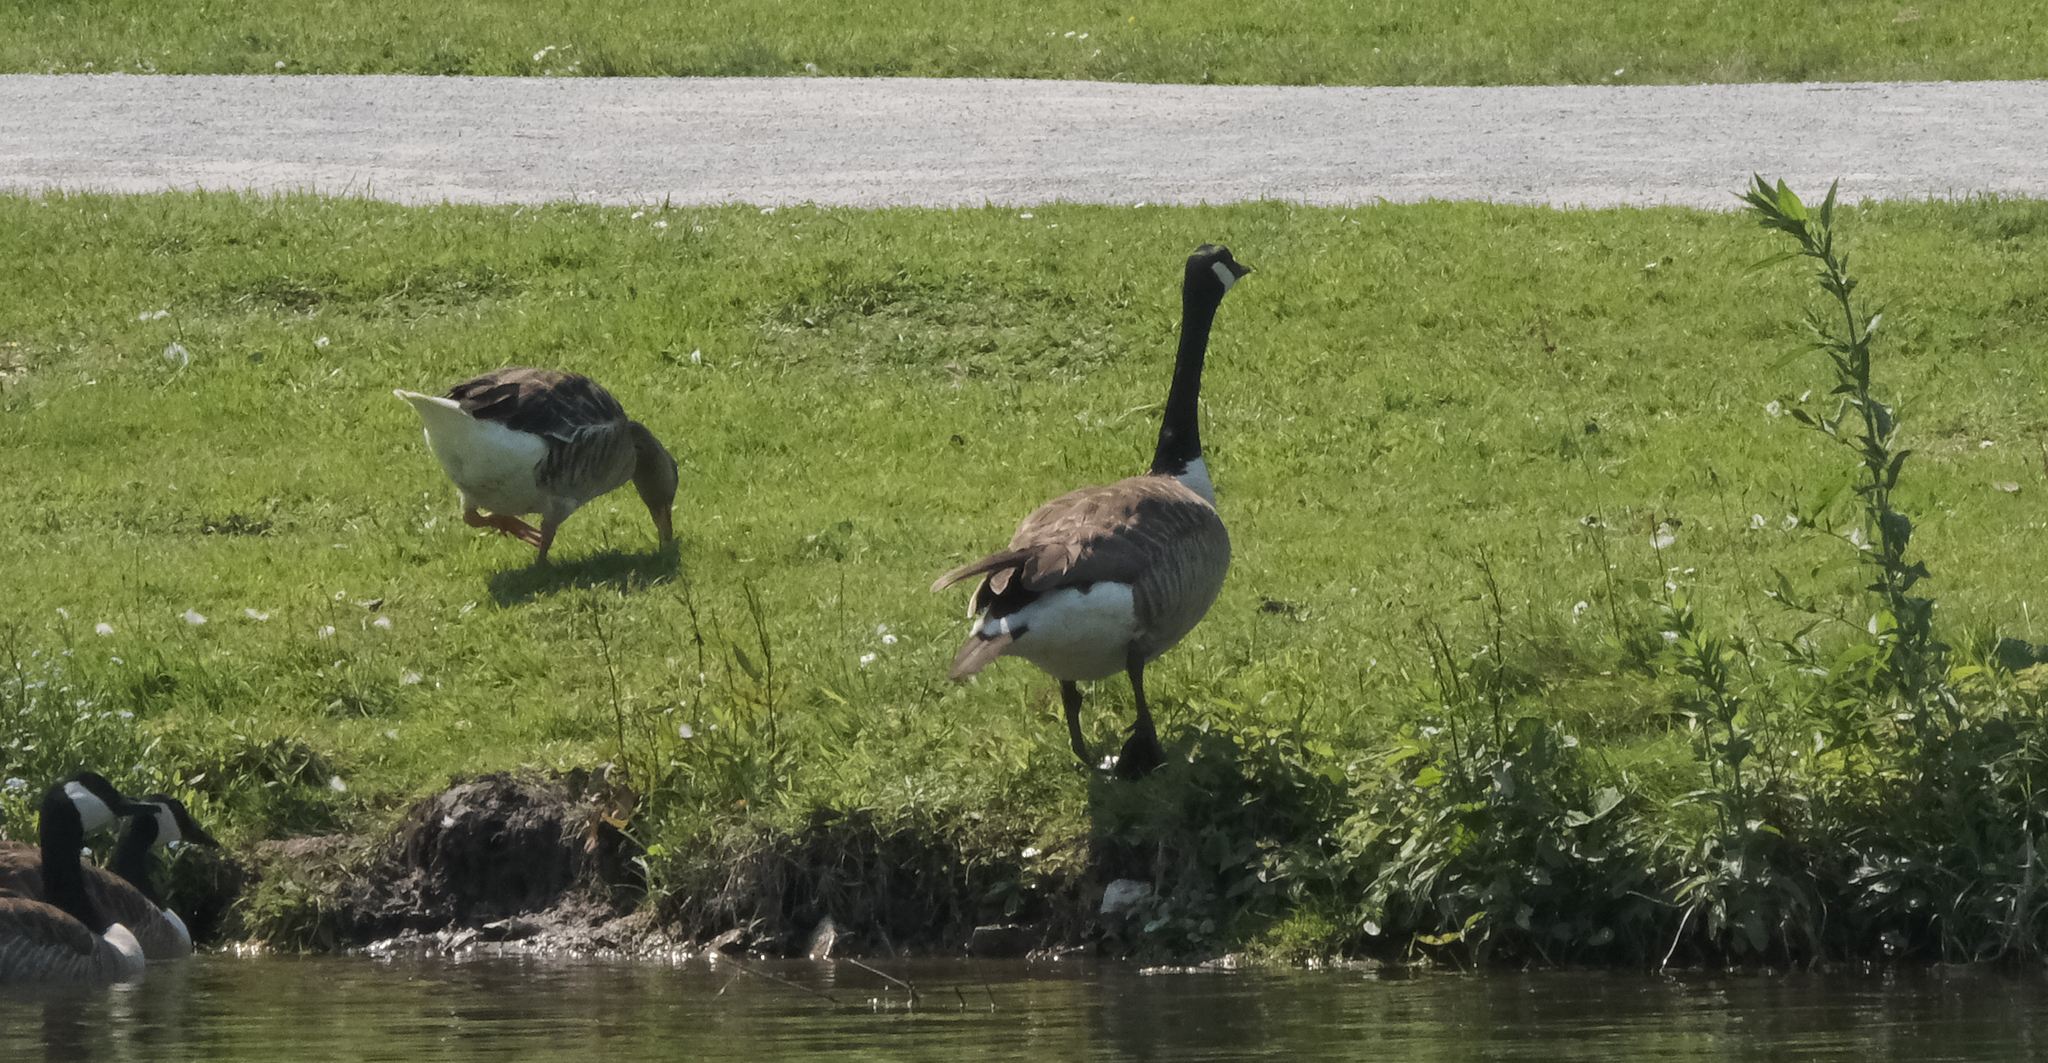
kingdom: Animalia
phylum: Chordata
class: Aves
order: Anseriformes
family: Anatidae
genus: Branta
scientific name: Branta canadensis
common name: Canada goose
